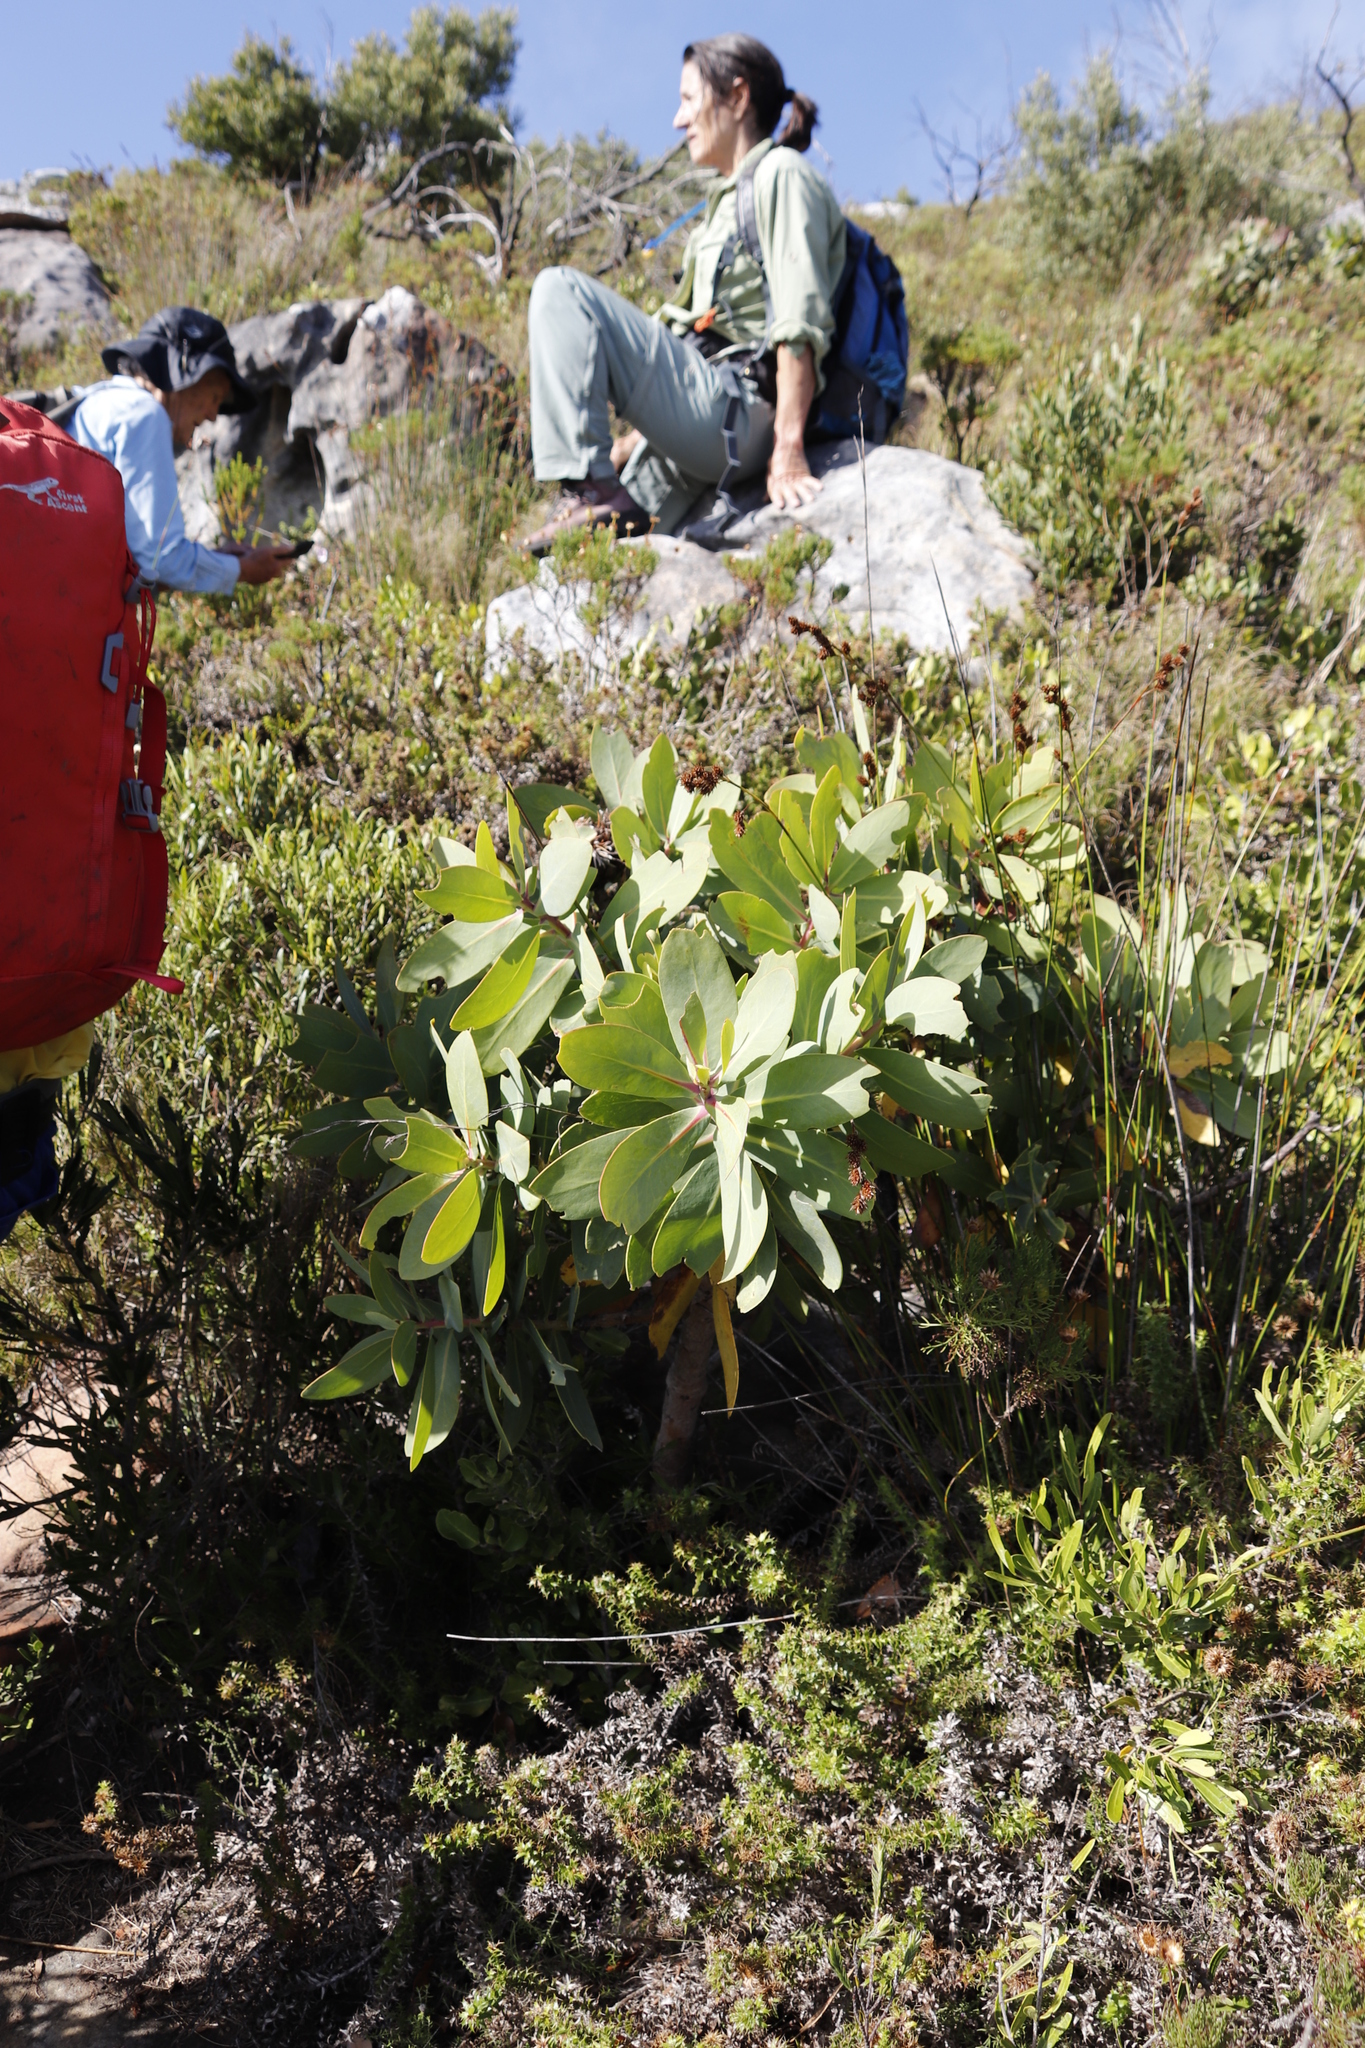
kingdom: Plantae
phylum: Tracheophyta
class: Magnoliopsida
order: Proteales
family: Proteaceae
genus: Protea
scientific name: Protea nitida
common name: Tree protea
